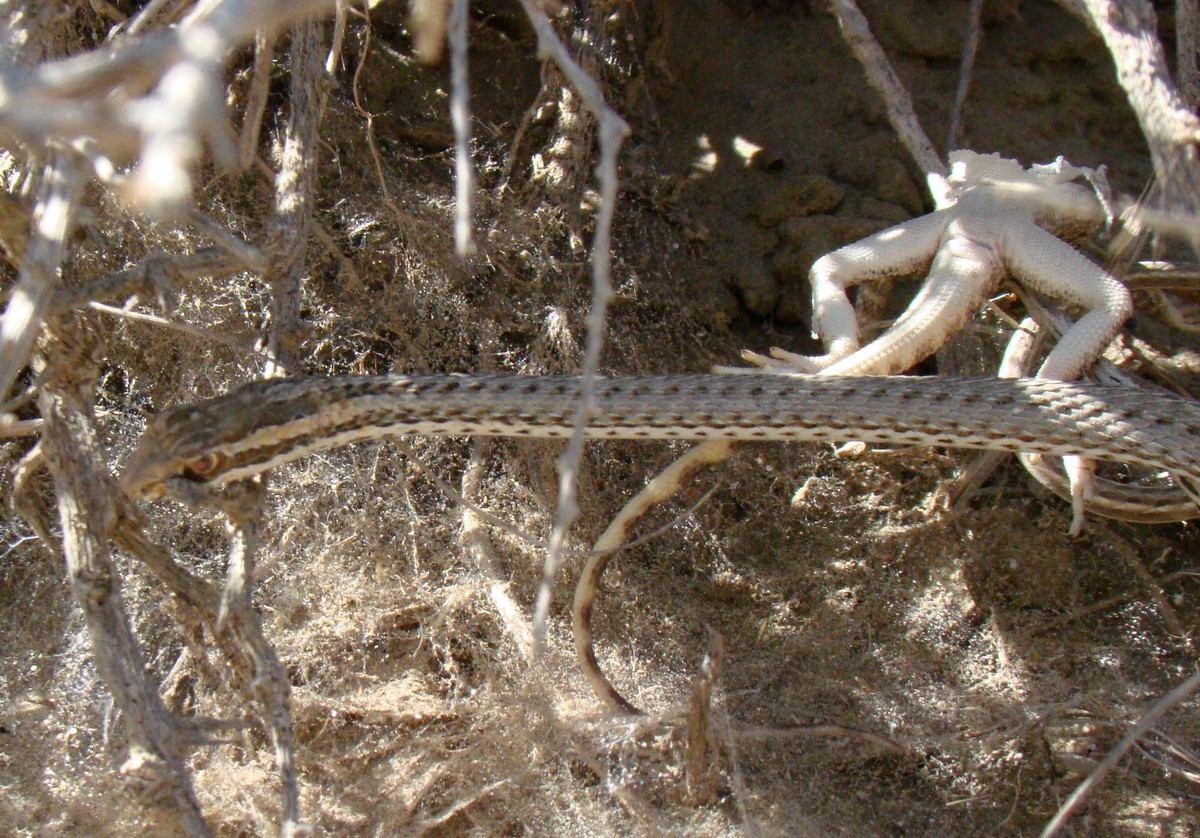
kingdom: Animalia
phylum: Chordata
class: Squamata
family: Psammophiidae
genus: Psammophis
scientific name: Psammophis lineolatus
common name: Steppe ribbon racer
